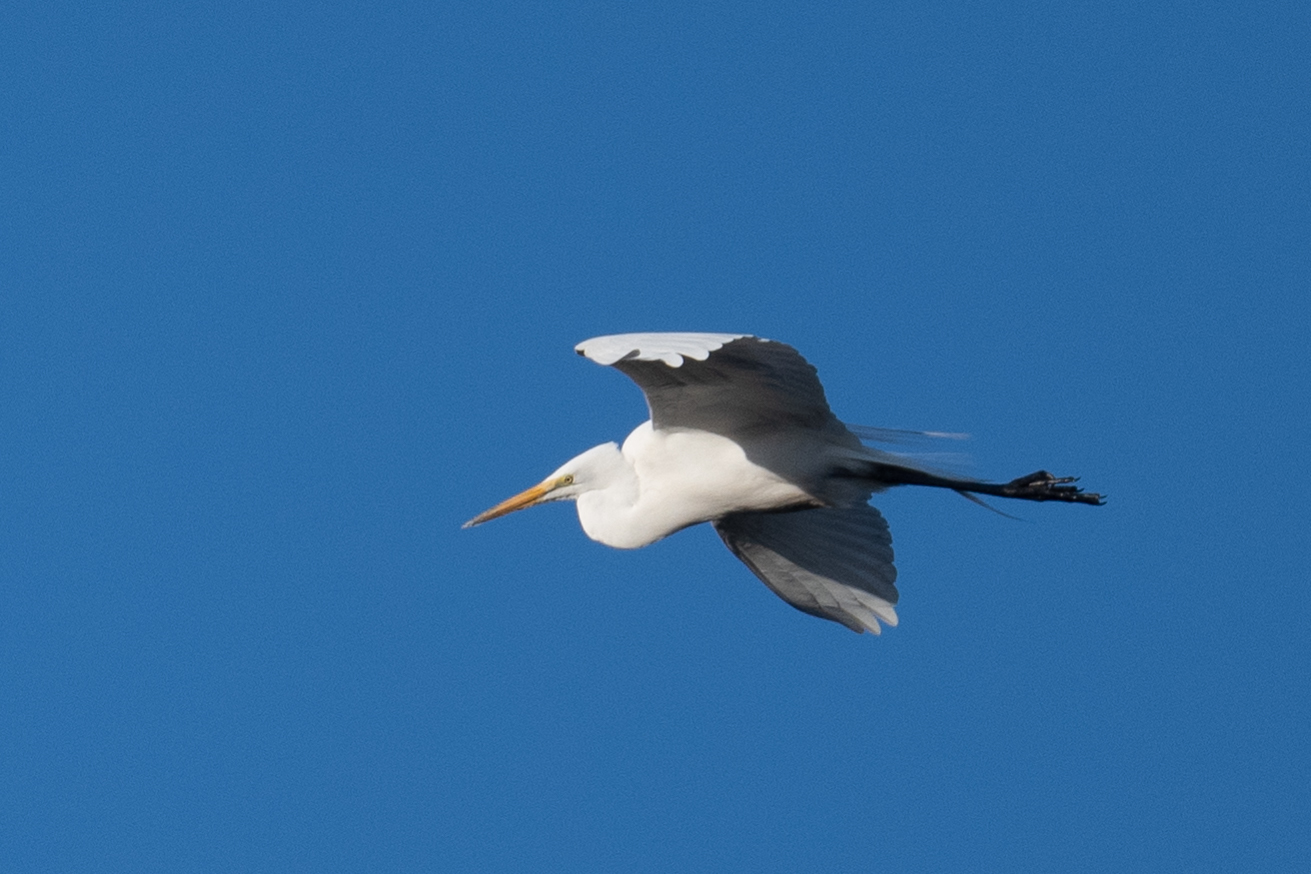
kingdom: Animalia
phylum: Chordata
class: Aves
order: Pelecaniformes
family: Ardeidae
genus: Ardea
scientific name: Ardea alba
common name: Great egret
